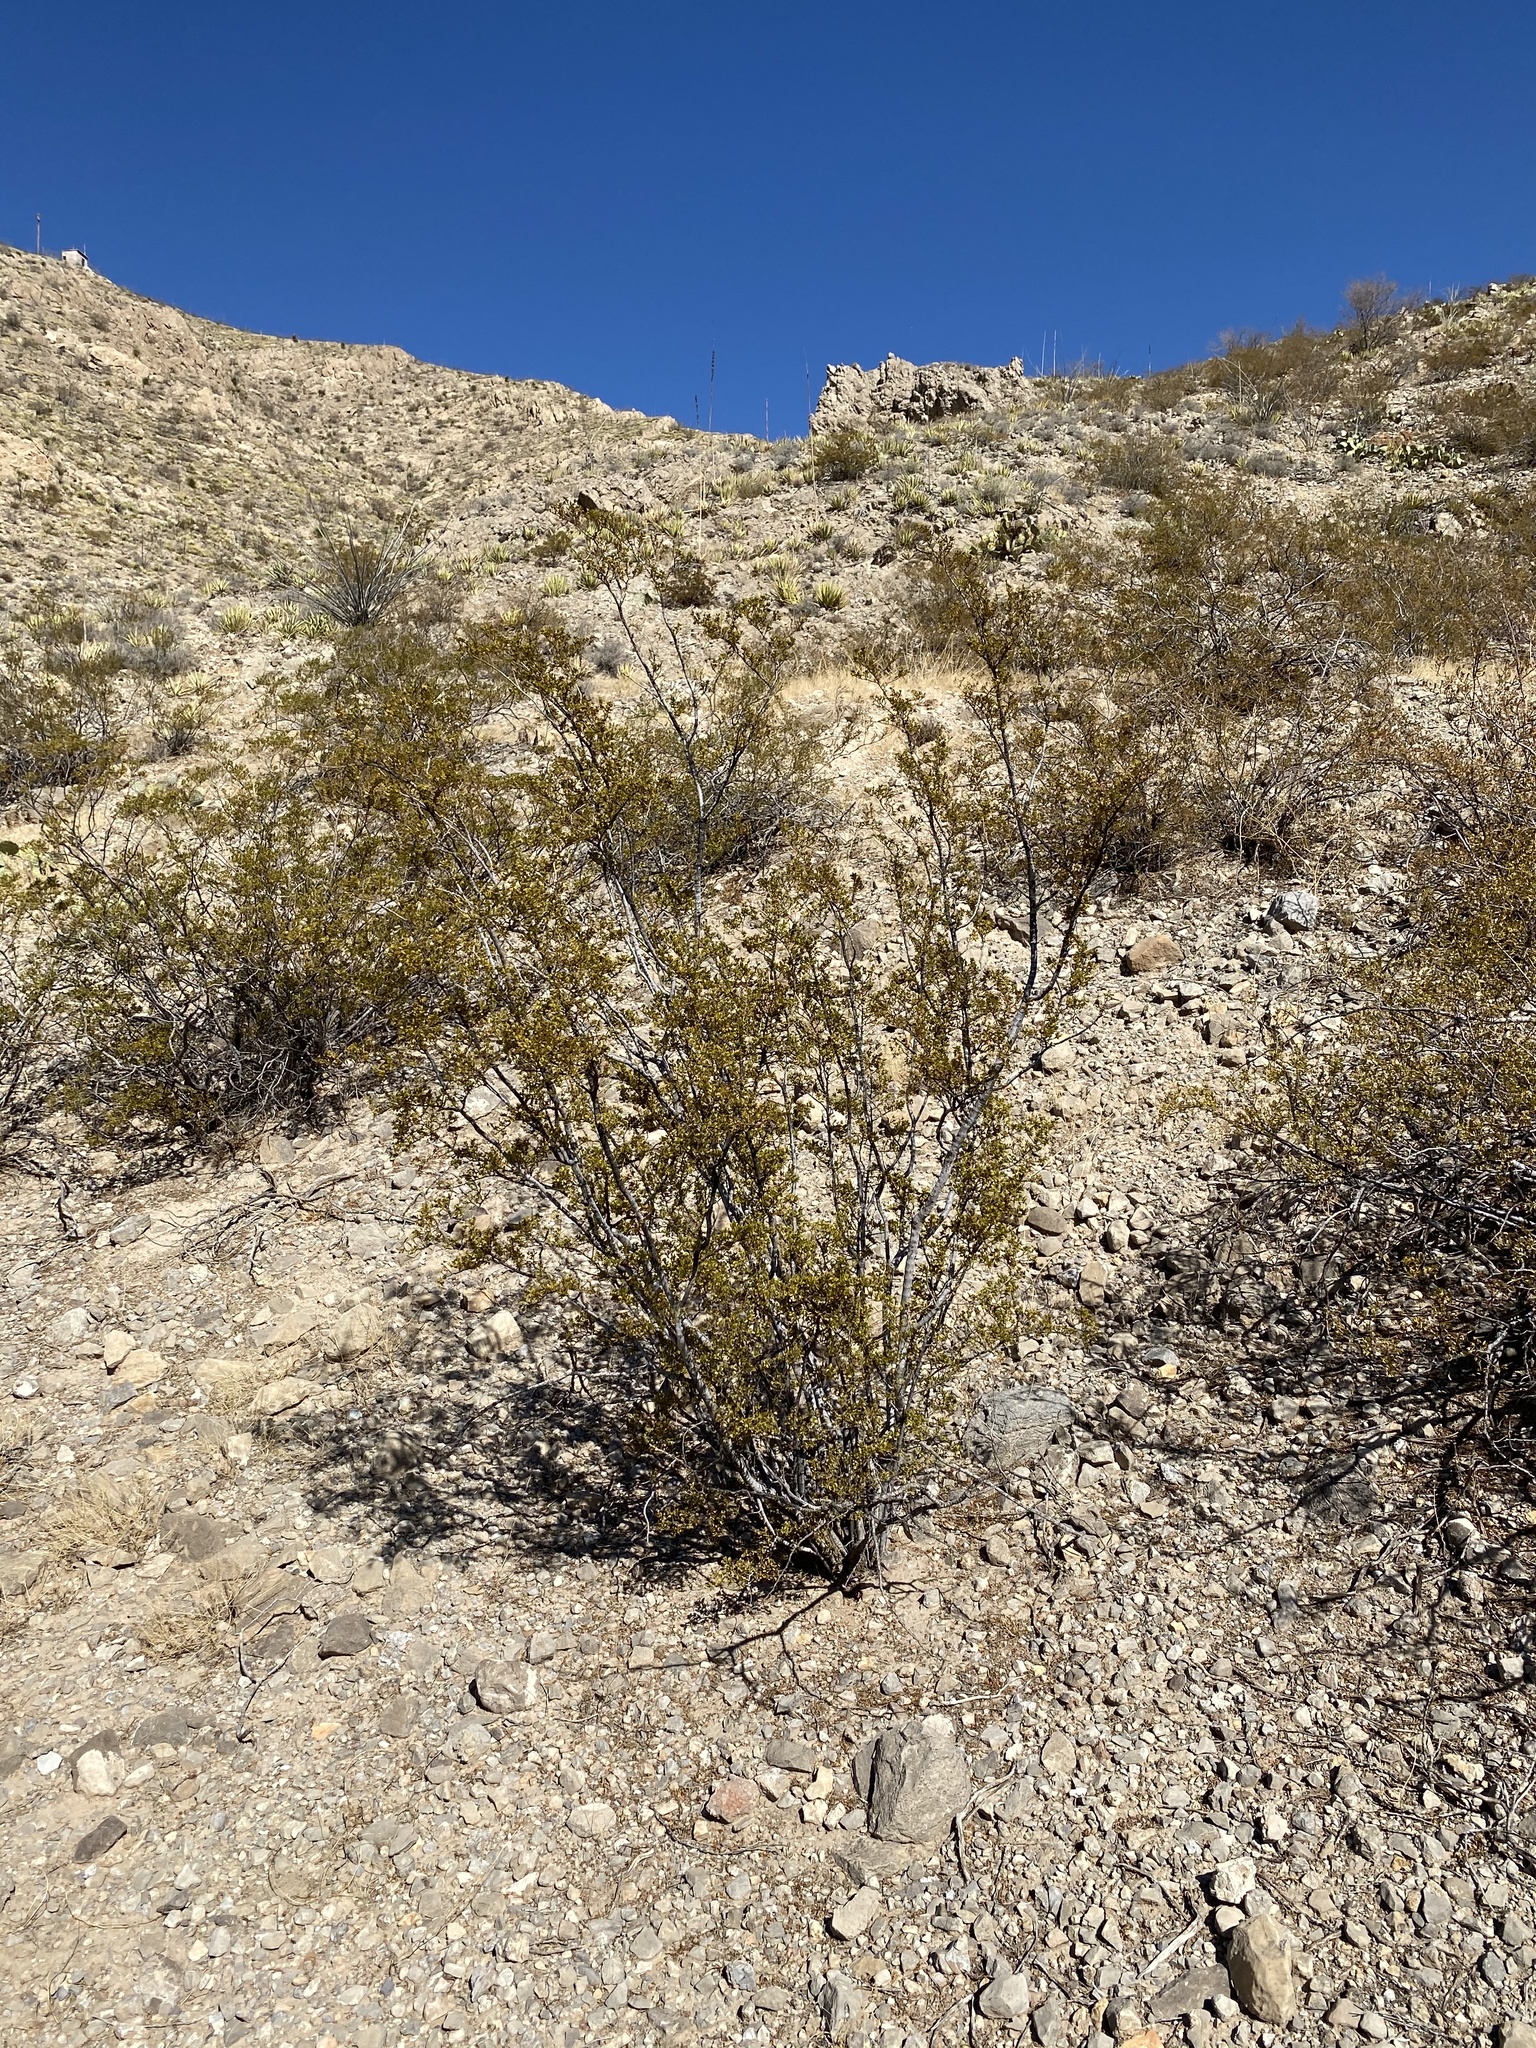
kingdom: Plantae
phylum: Tracheophyta
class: Magnoliopsida
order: Zygophyllales
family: Zygophyllaceae
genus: Larrea
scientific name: Larrea tridentata
